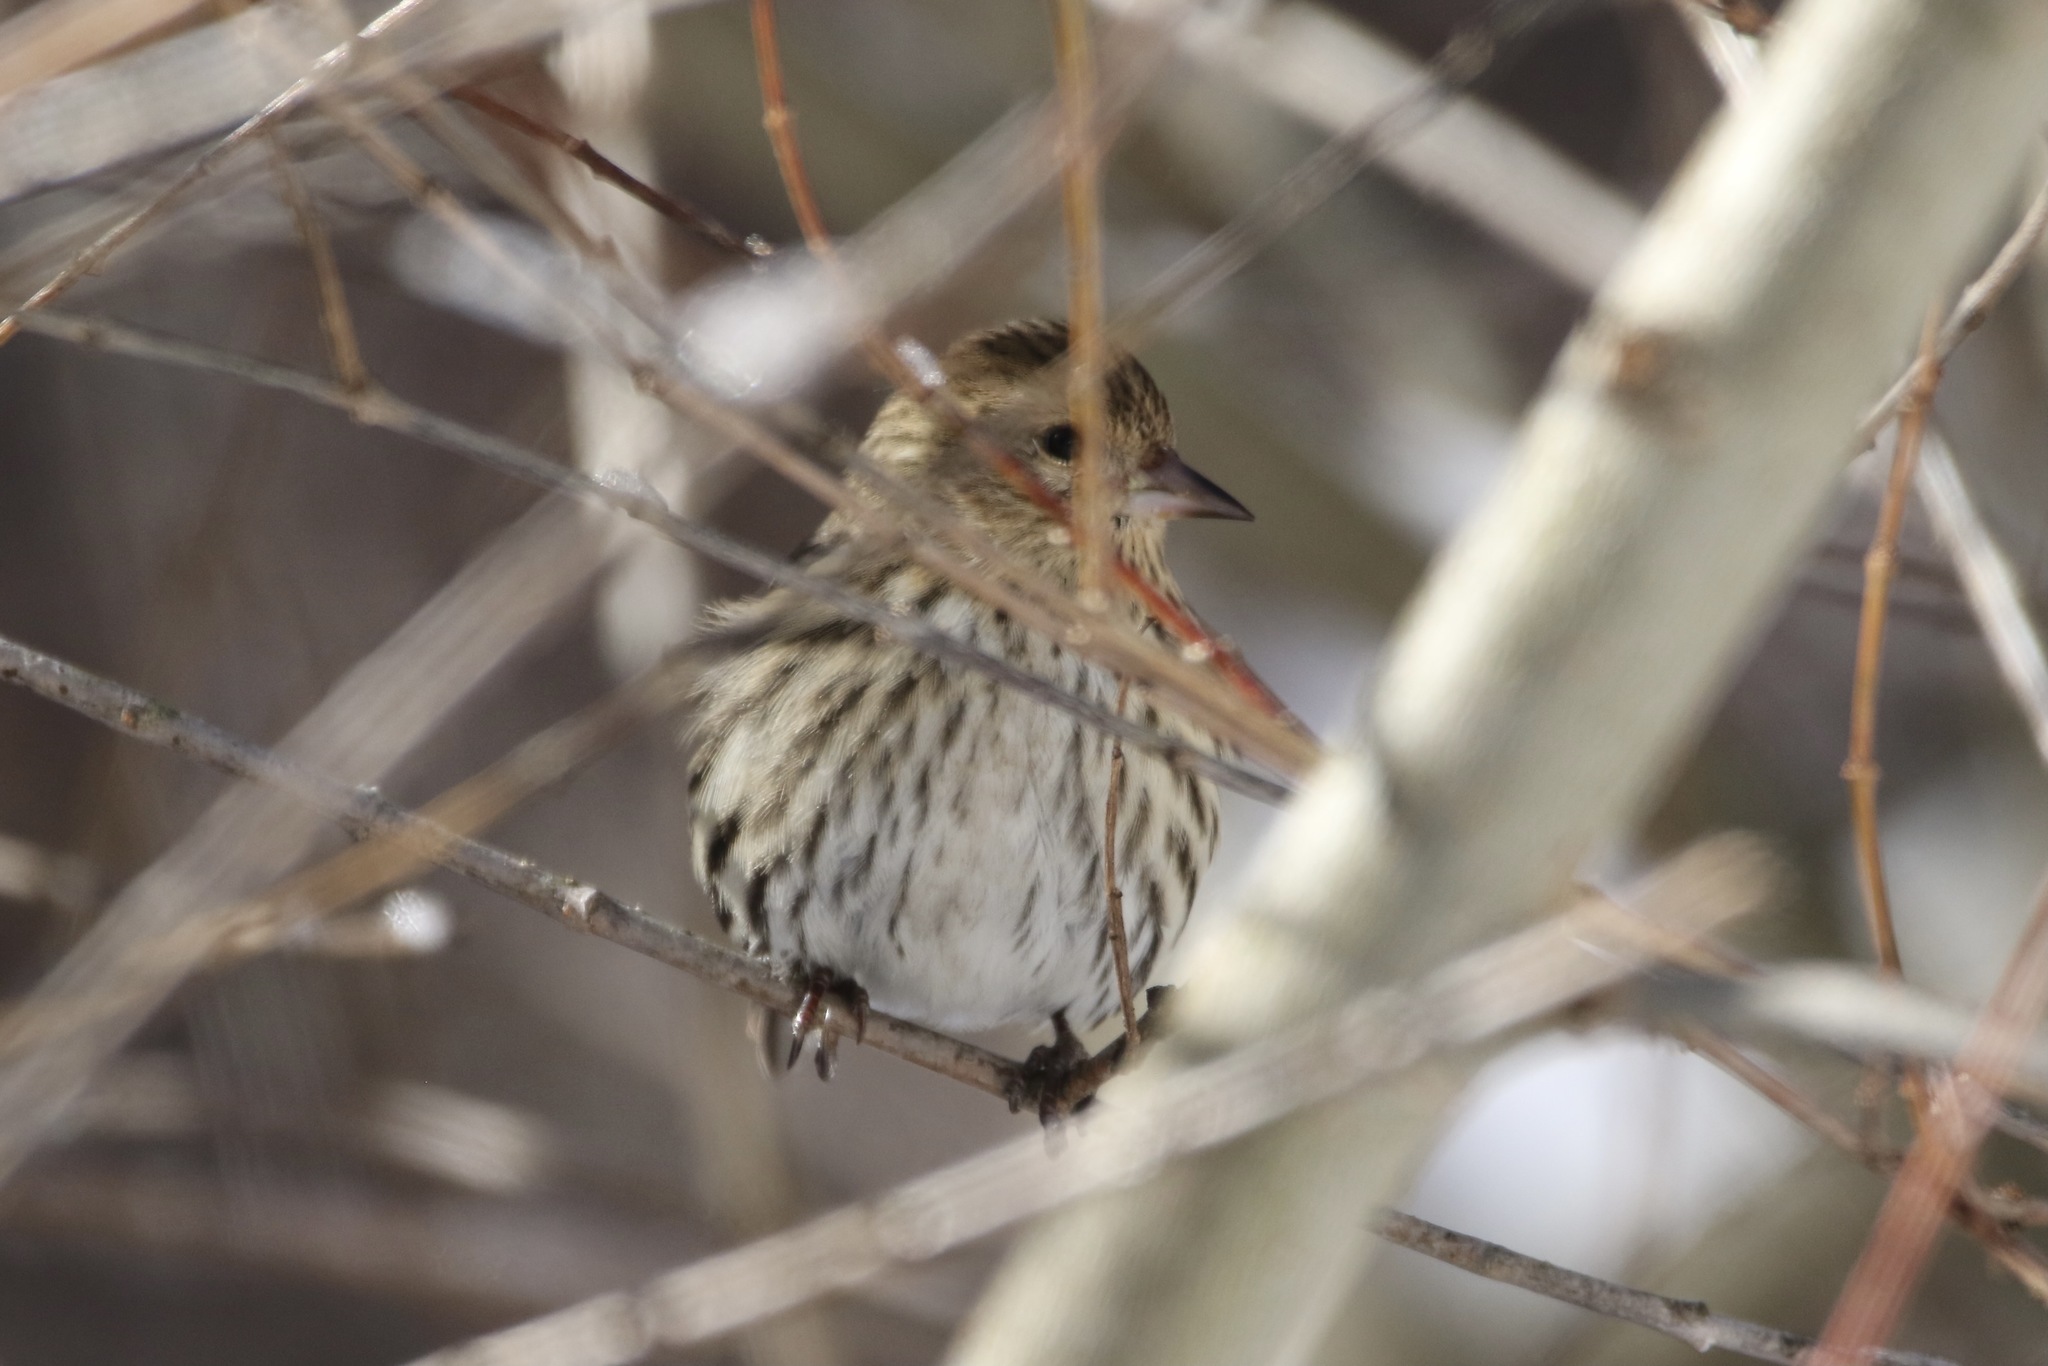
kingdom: Animalia
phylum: Chordata
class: Aves
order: Passeriformes
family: Fringillidae
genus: Spinus
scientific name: Spinus pinus
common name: Pine siskin
